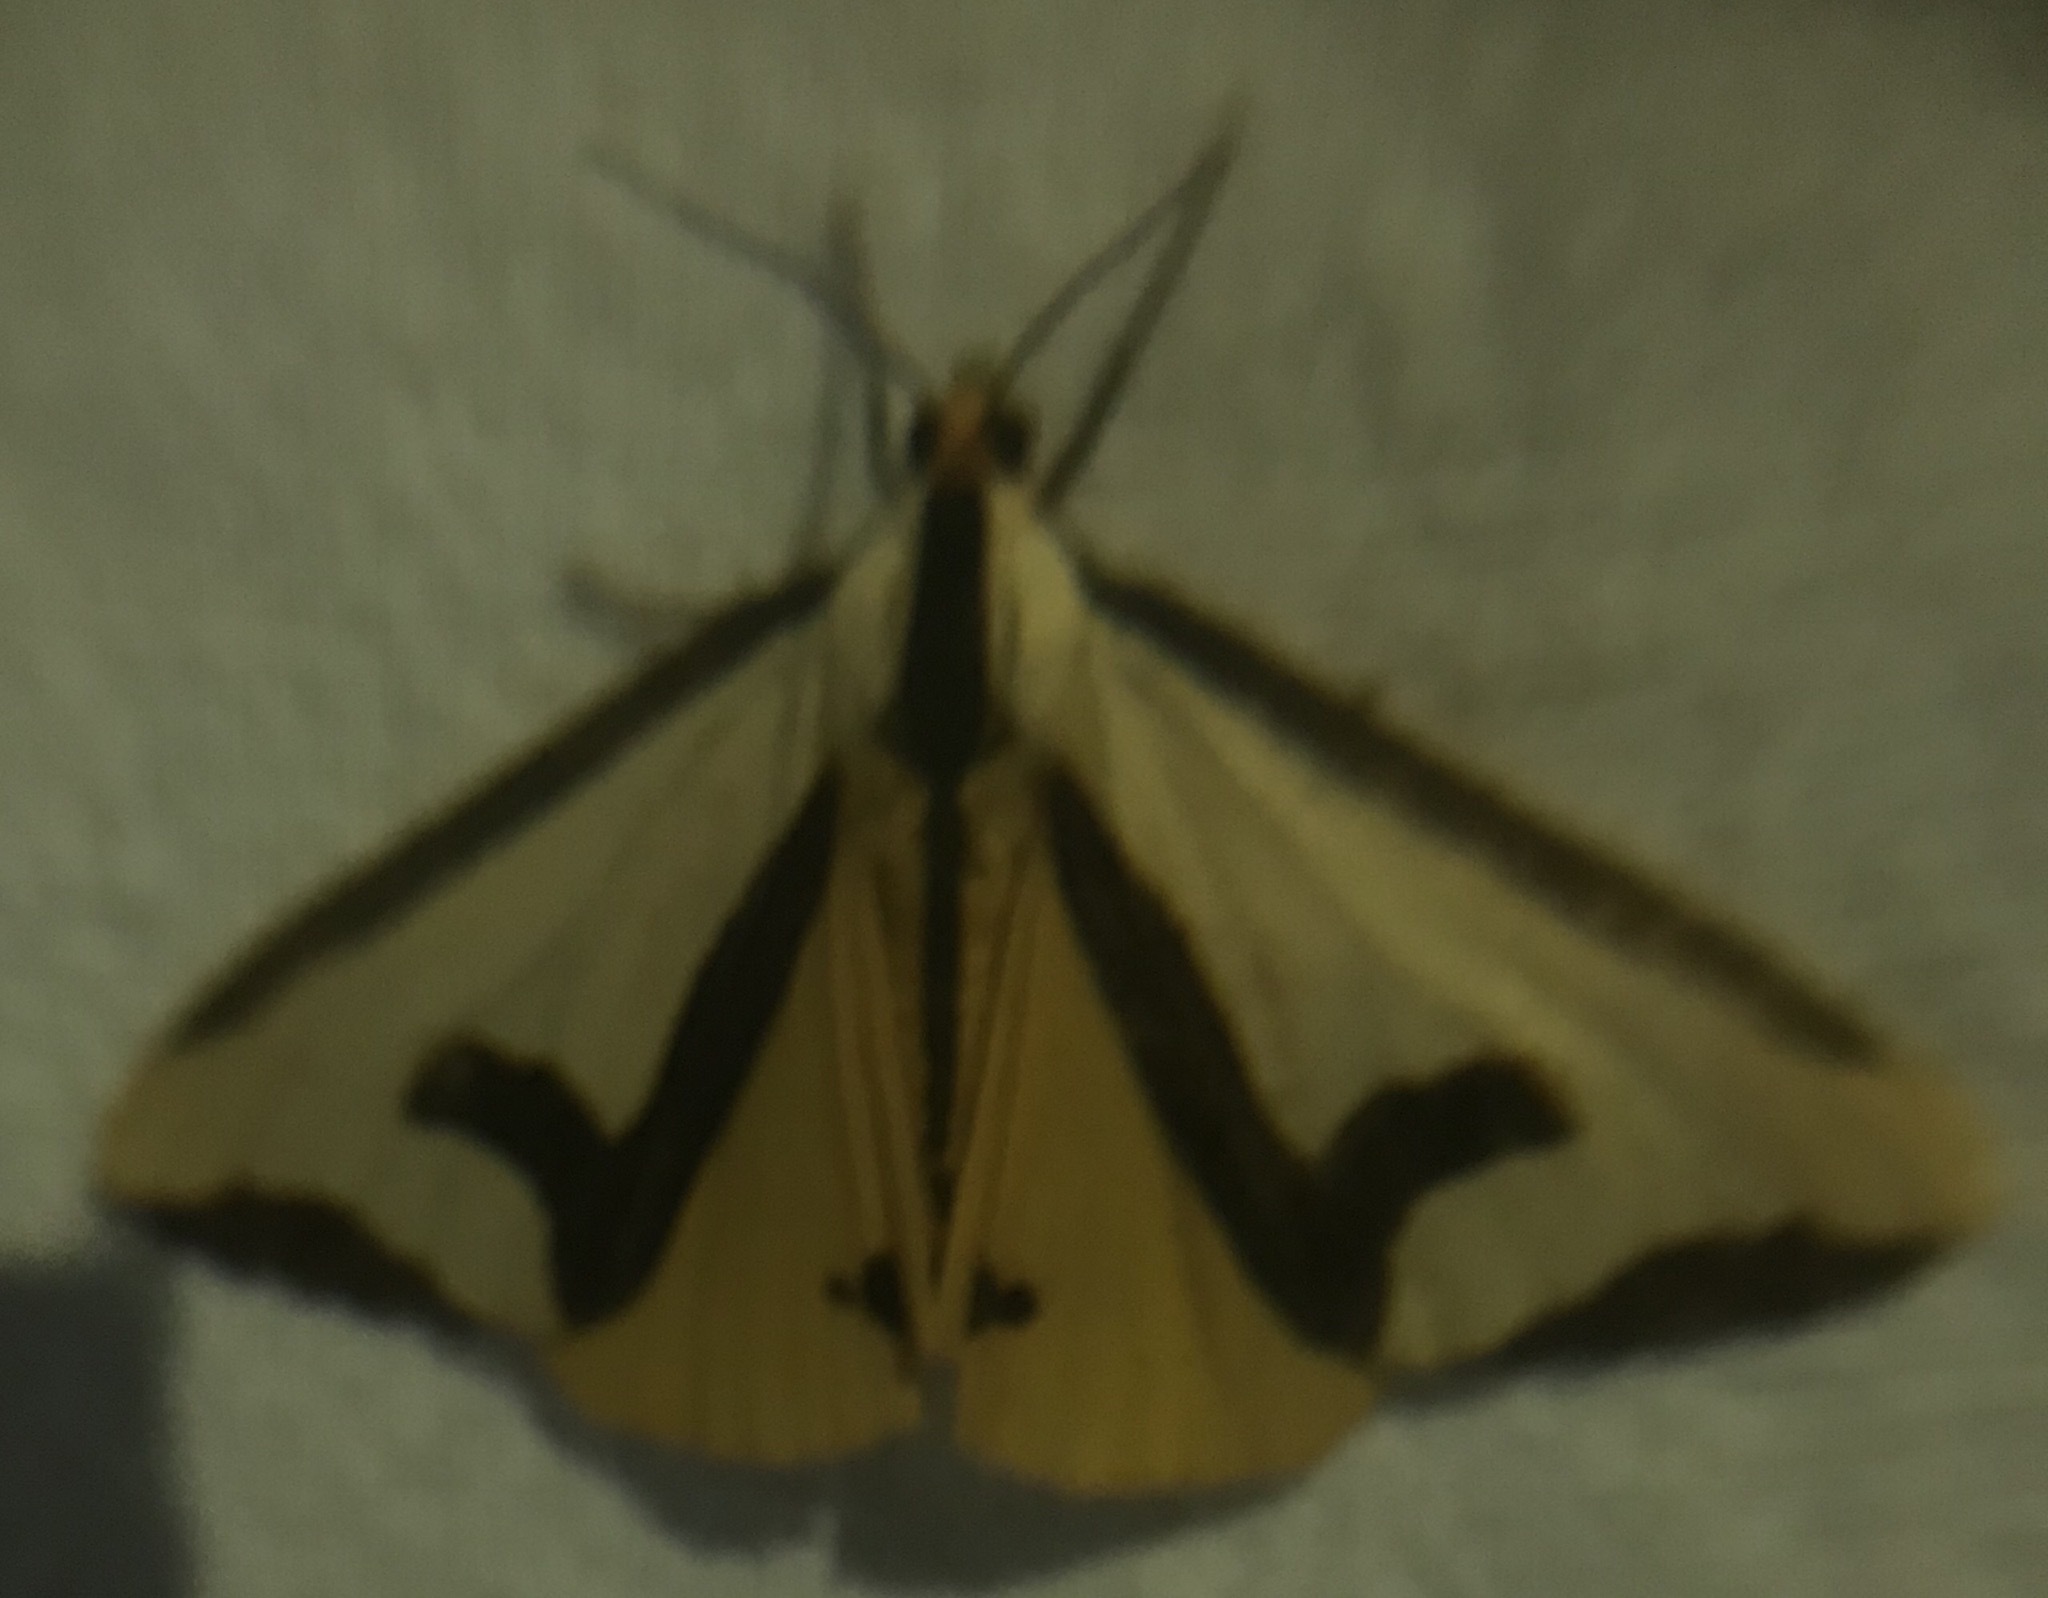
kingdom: Animalia
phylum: Arthropoda
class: Insecta
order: Lepidoptera
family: Erebidae
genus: Haploa
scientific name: Haploa clymene
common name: Clymene moth
